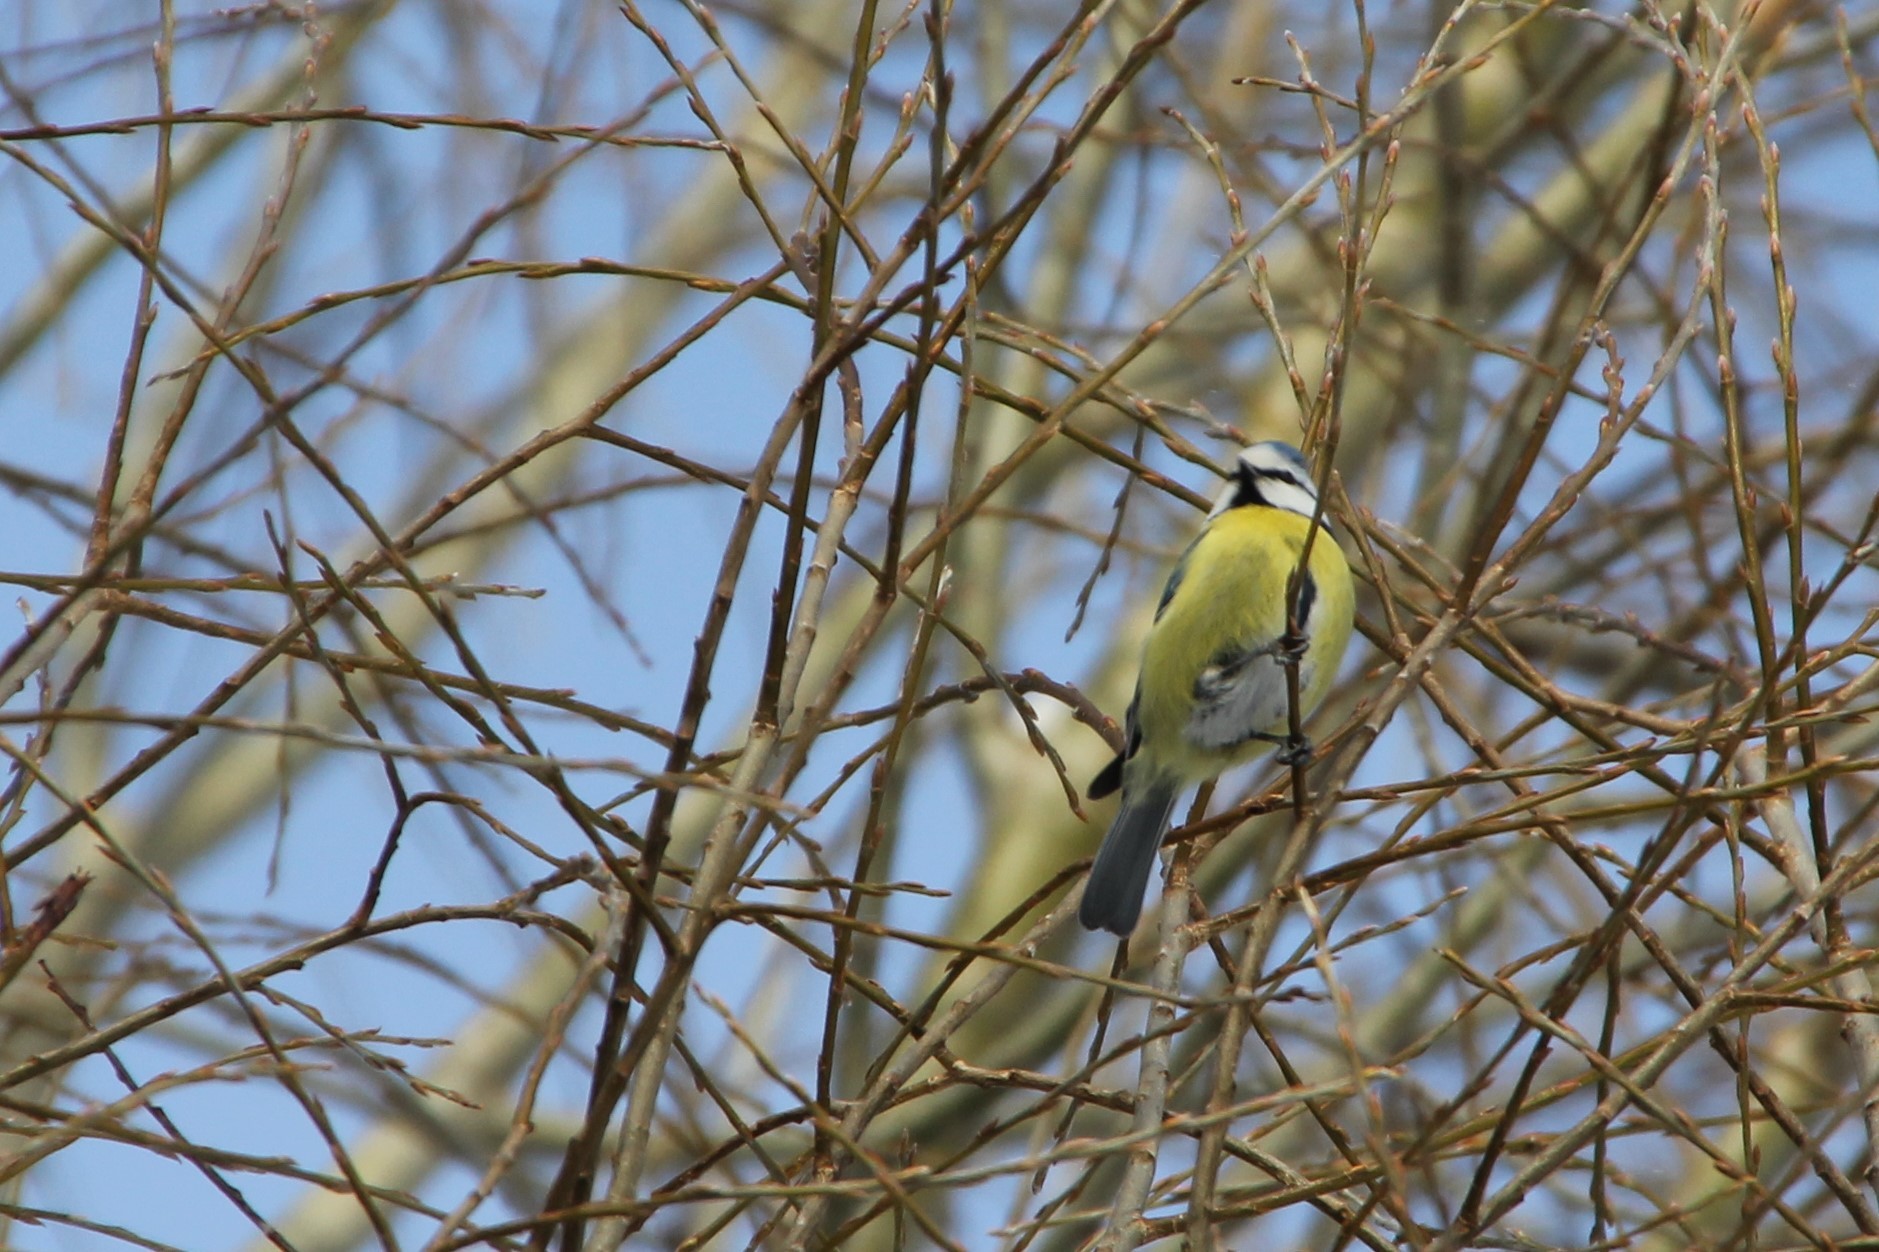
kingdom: Animalia
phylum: Chordata
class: Aves
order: Passeriformes
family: Paridae
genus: Cyanistes
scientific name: Cyanistes caeruleus
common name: Eurasian blue tit
